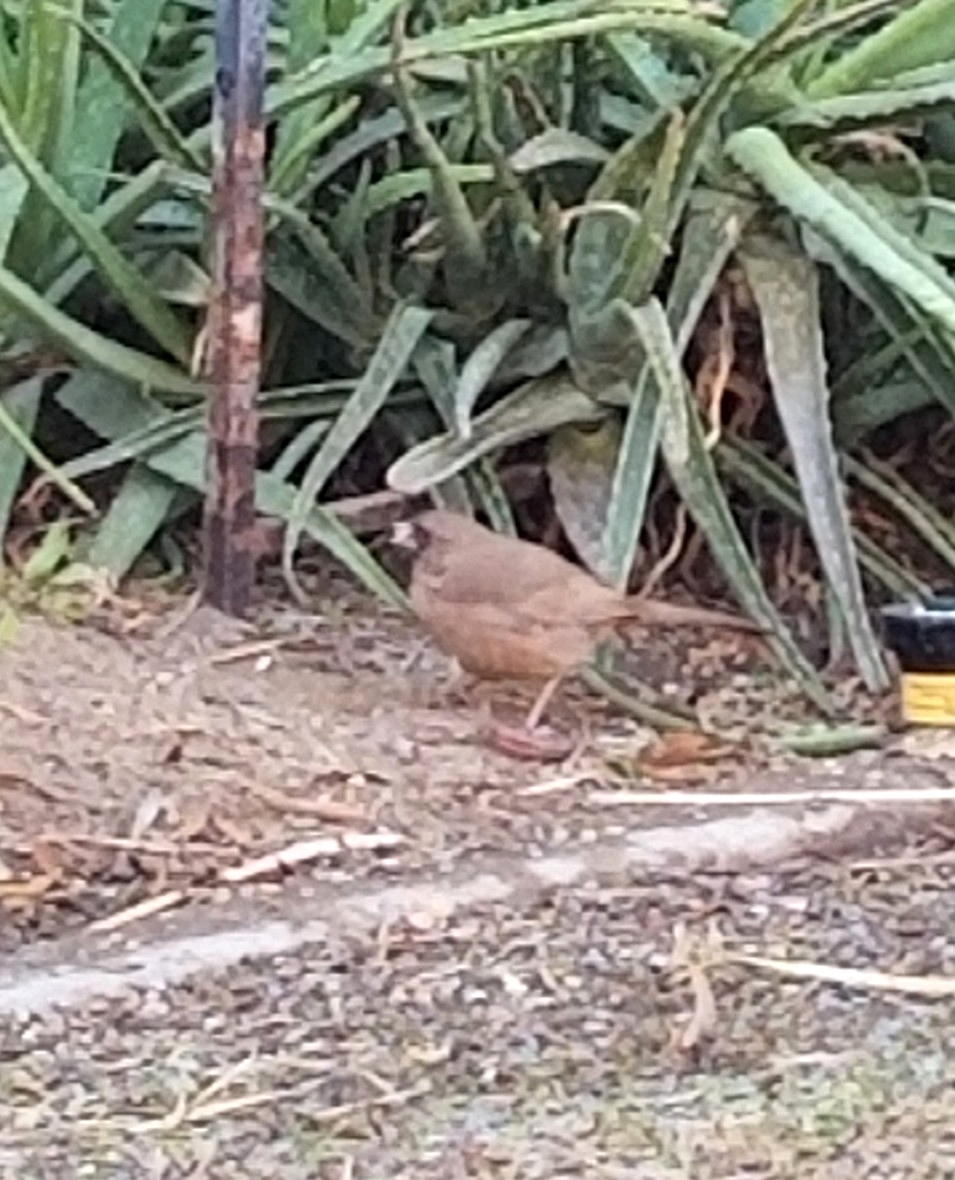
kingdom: Animalia
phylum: Chordata
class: Aves
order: Passeriformes
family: Passerellidae
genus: Melozone
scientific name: Melozone aberti
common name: Abert's towhee
